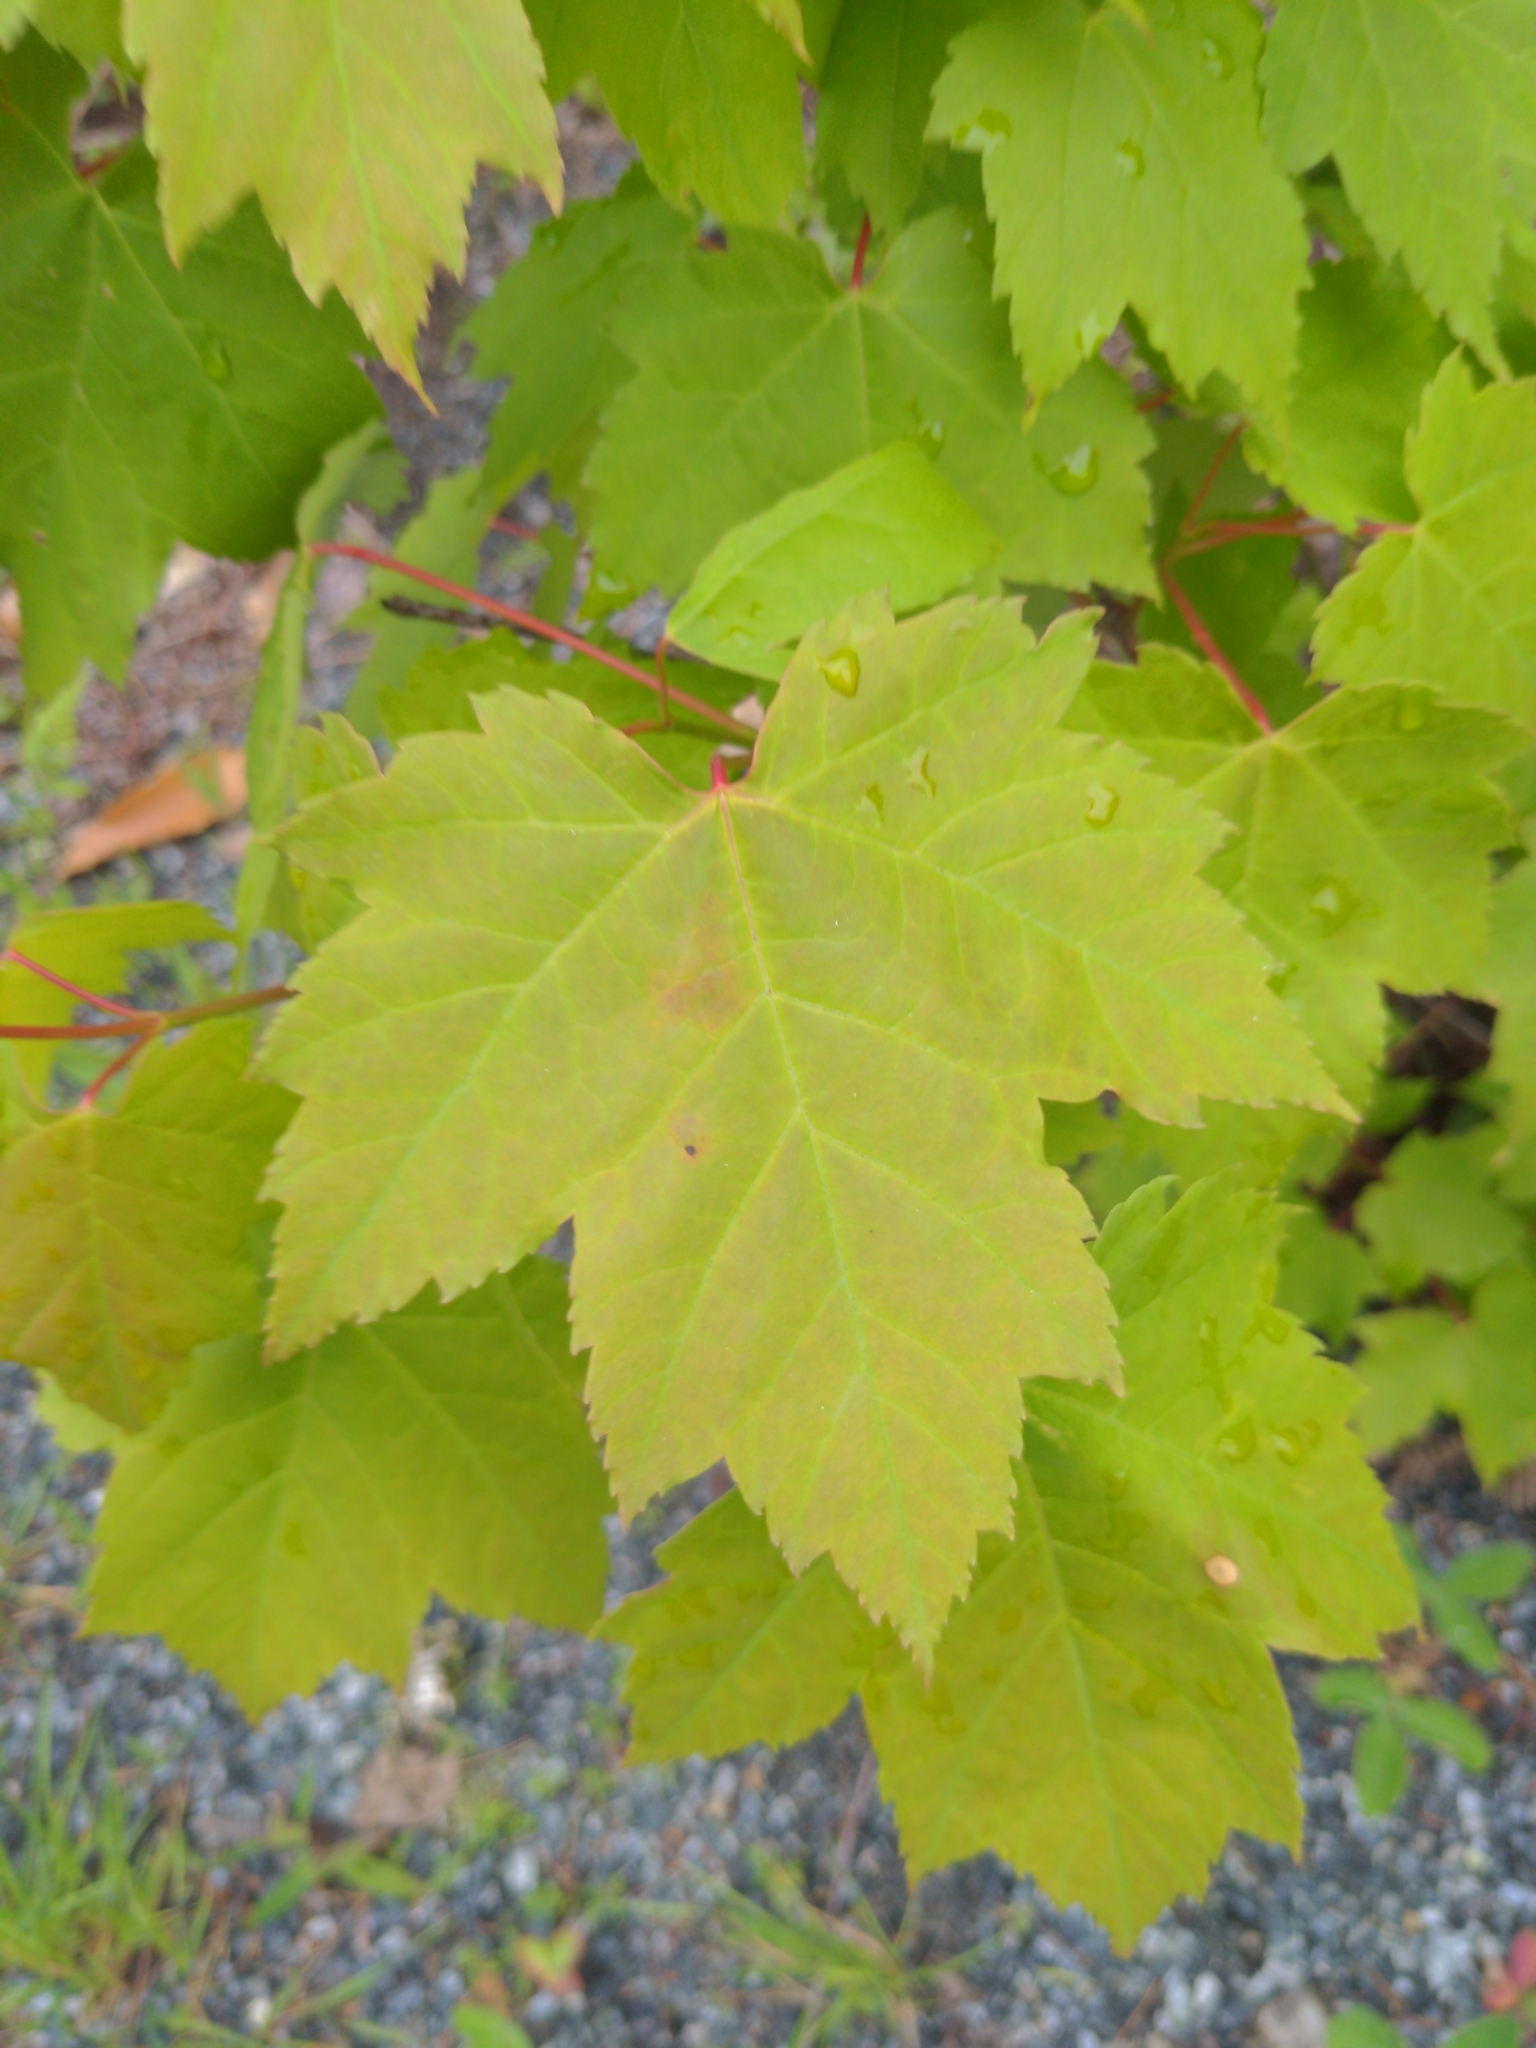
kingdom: Plantae
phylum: Tracheophyta
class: Magnoliopsida
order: Sapindales
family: Sapindaceae
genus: Acer
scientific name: Acer rubrum
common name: Red maple
